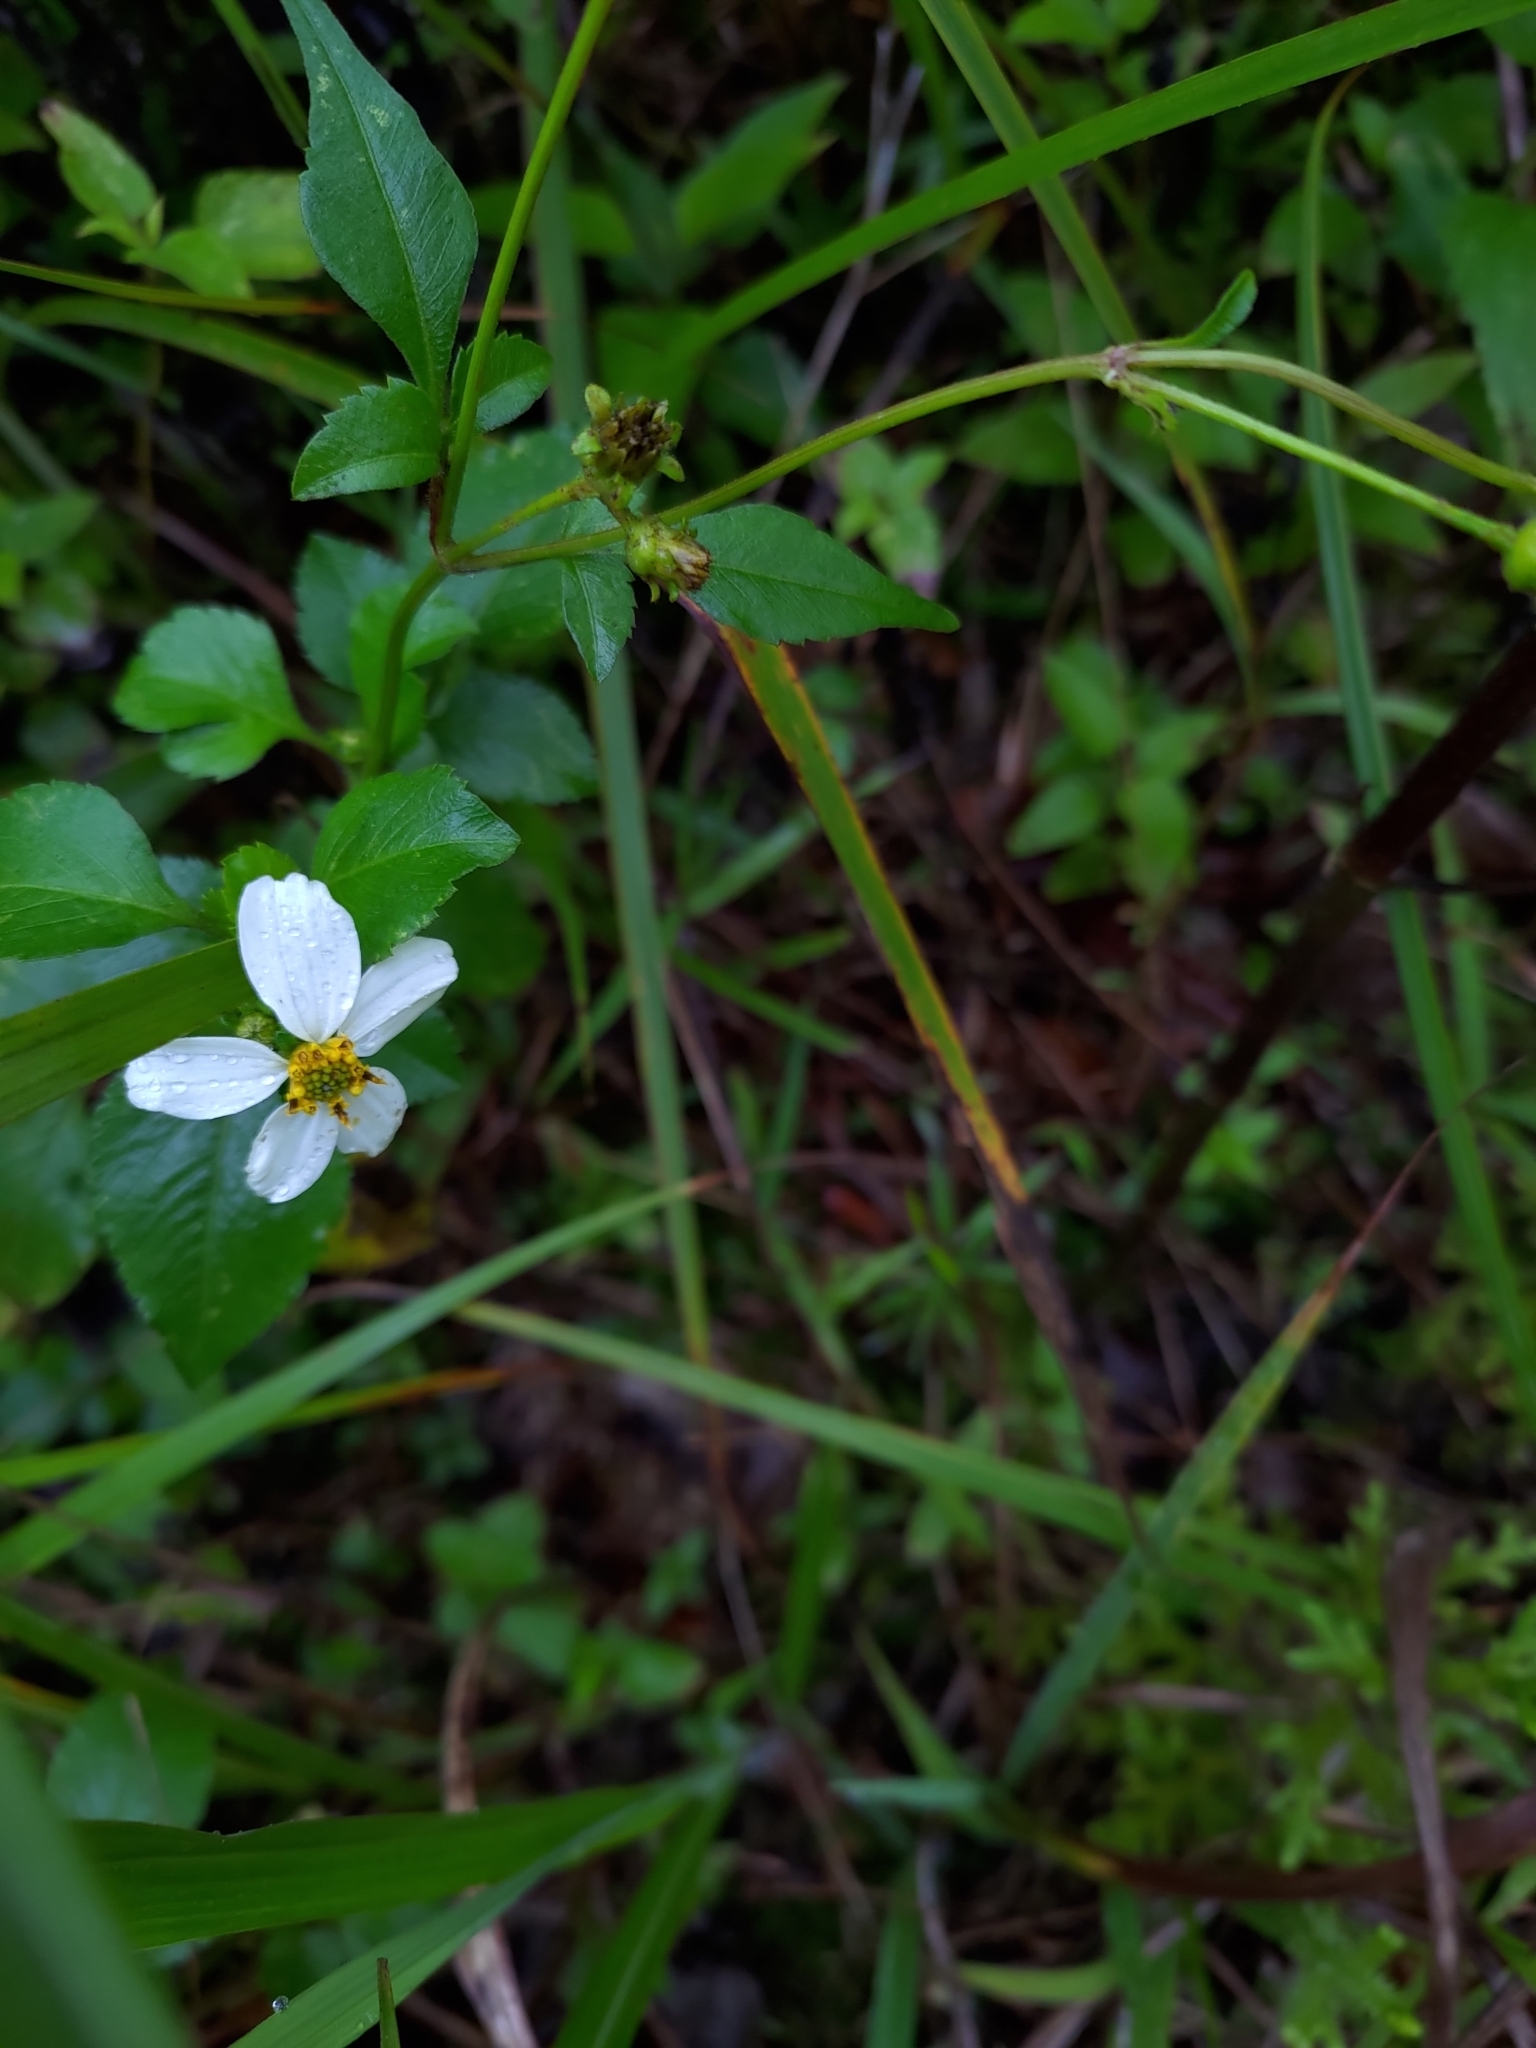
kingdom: Plantae
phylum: Tracheophyta
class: Magnoliopsida
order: Asterales
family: Asteraceae
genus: Bidens
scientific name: Bidens alba
